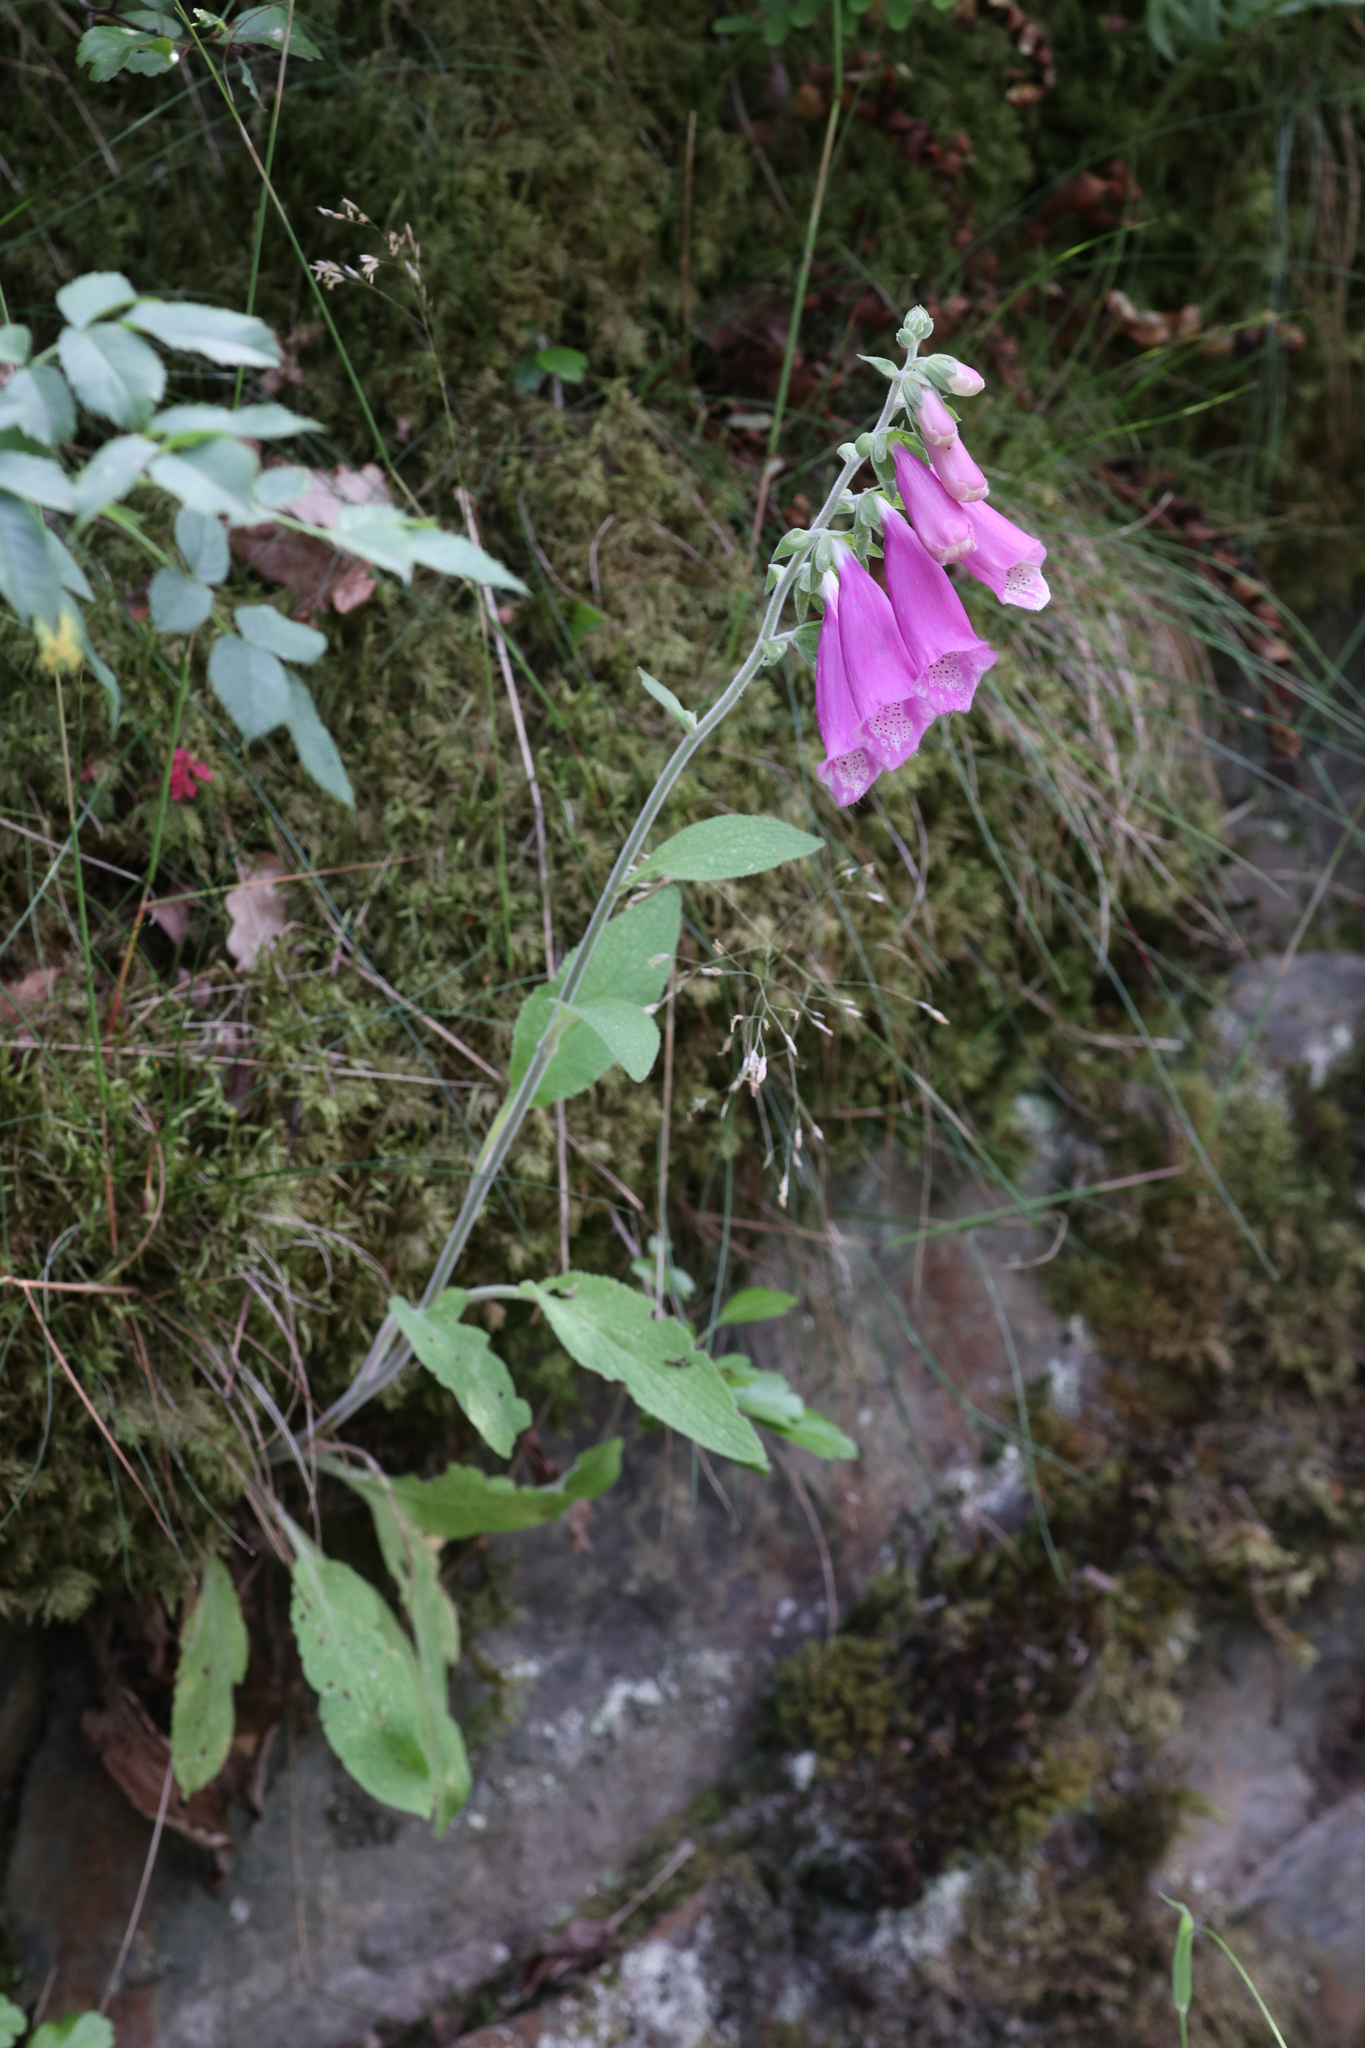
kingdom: Plantae
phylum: Tracheophyta
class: Magnoliopsida
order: Lamiales
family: Plantaginaceae
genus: Digitalis
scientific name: Digitalis purpurea
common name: Foxglove
